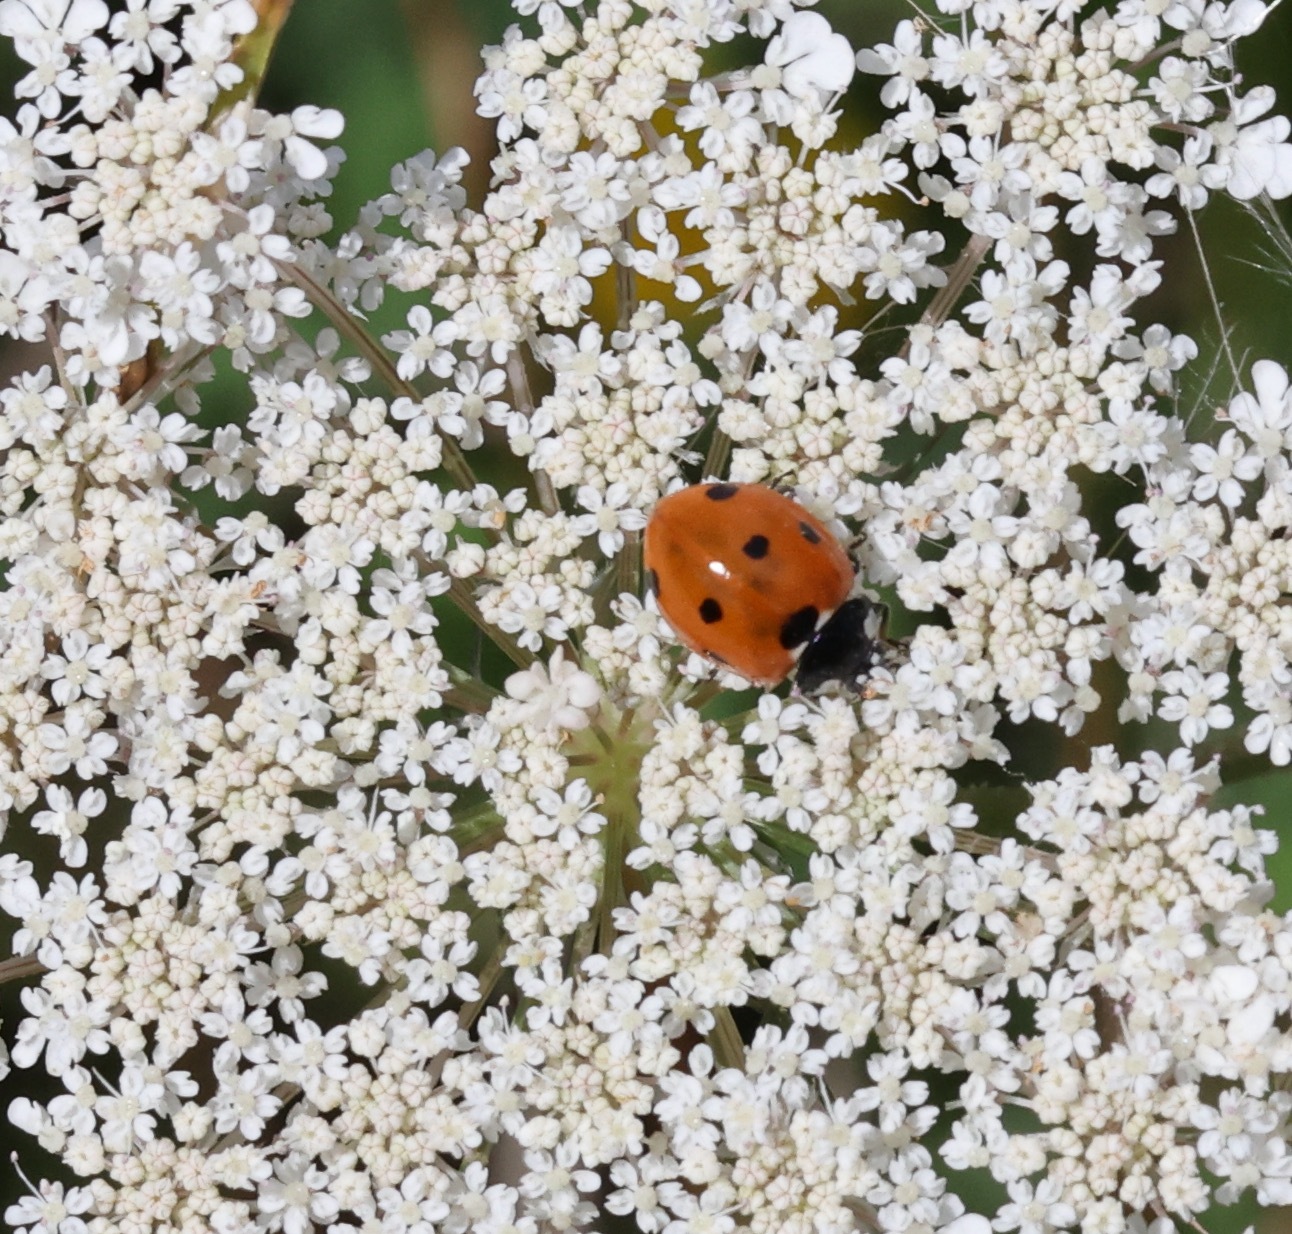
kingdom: Animalia
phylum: Arthropoda
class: Insecta
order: Coleoptera
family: Coccinellidae
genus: Coccinella
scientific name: Coccinella septempunctata
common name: Sevenspotted lady beetle
